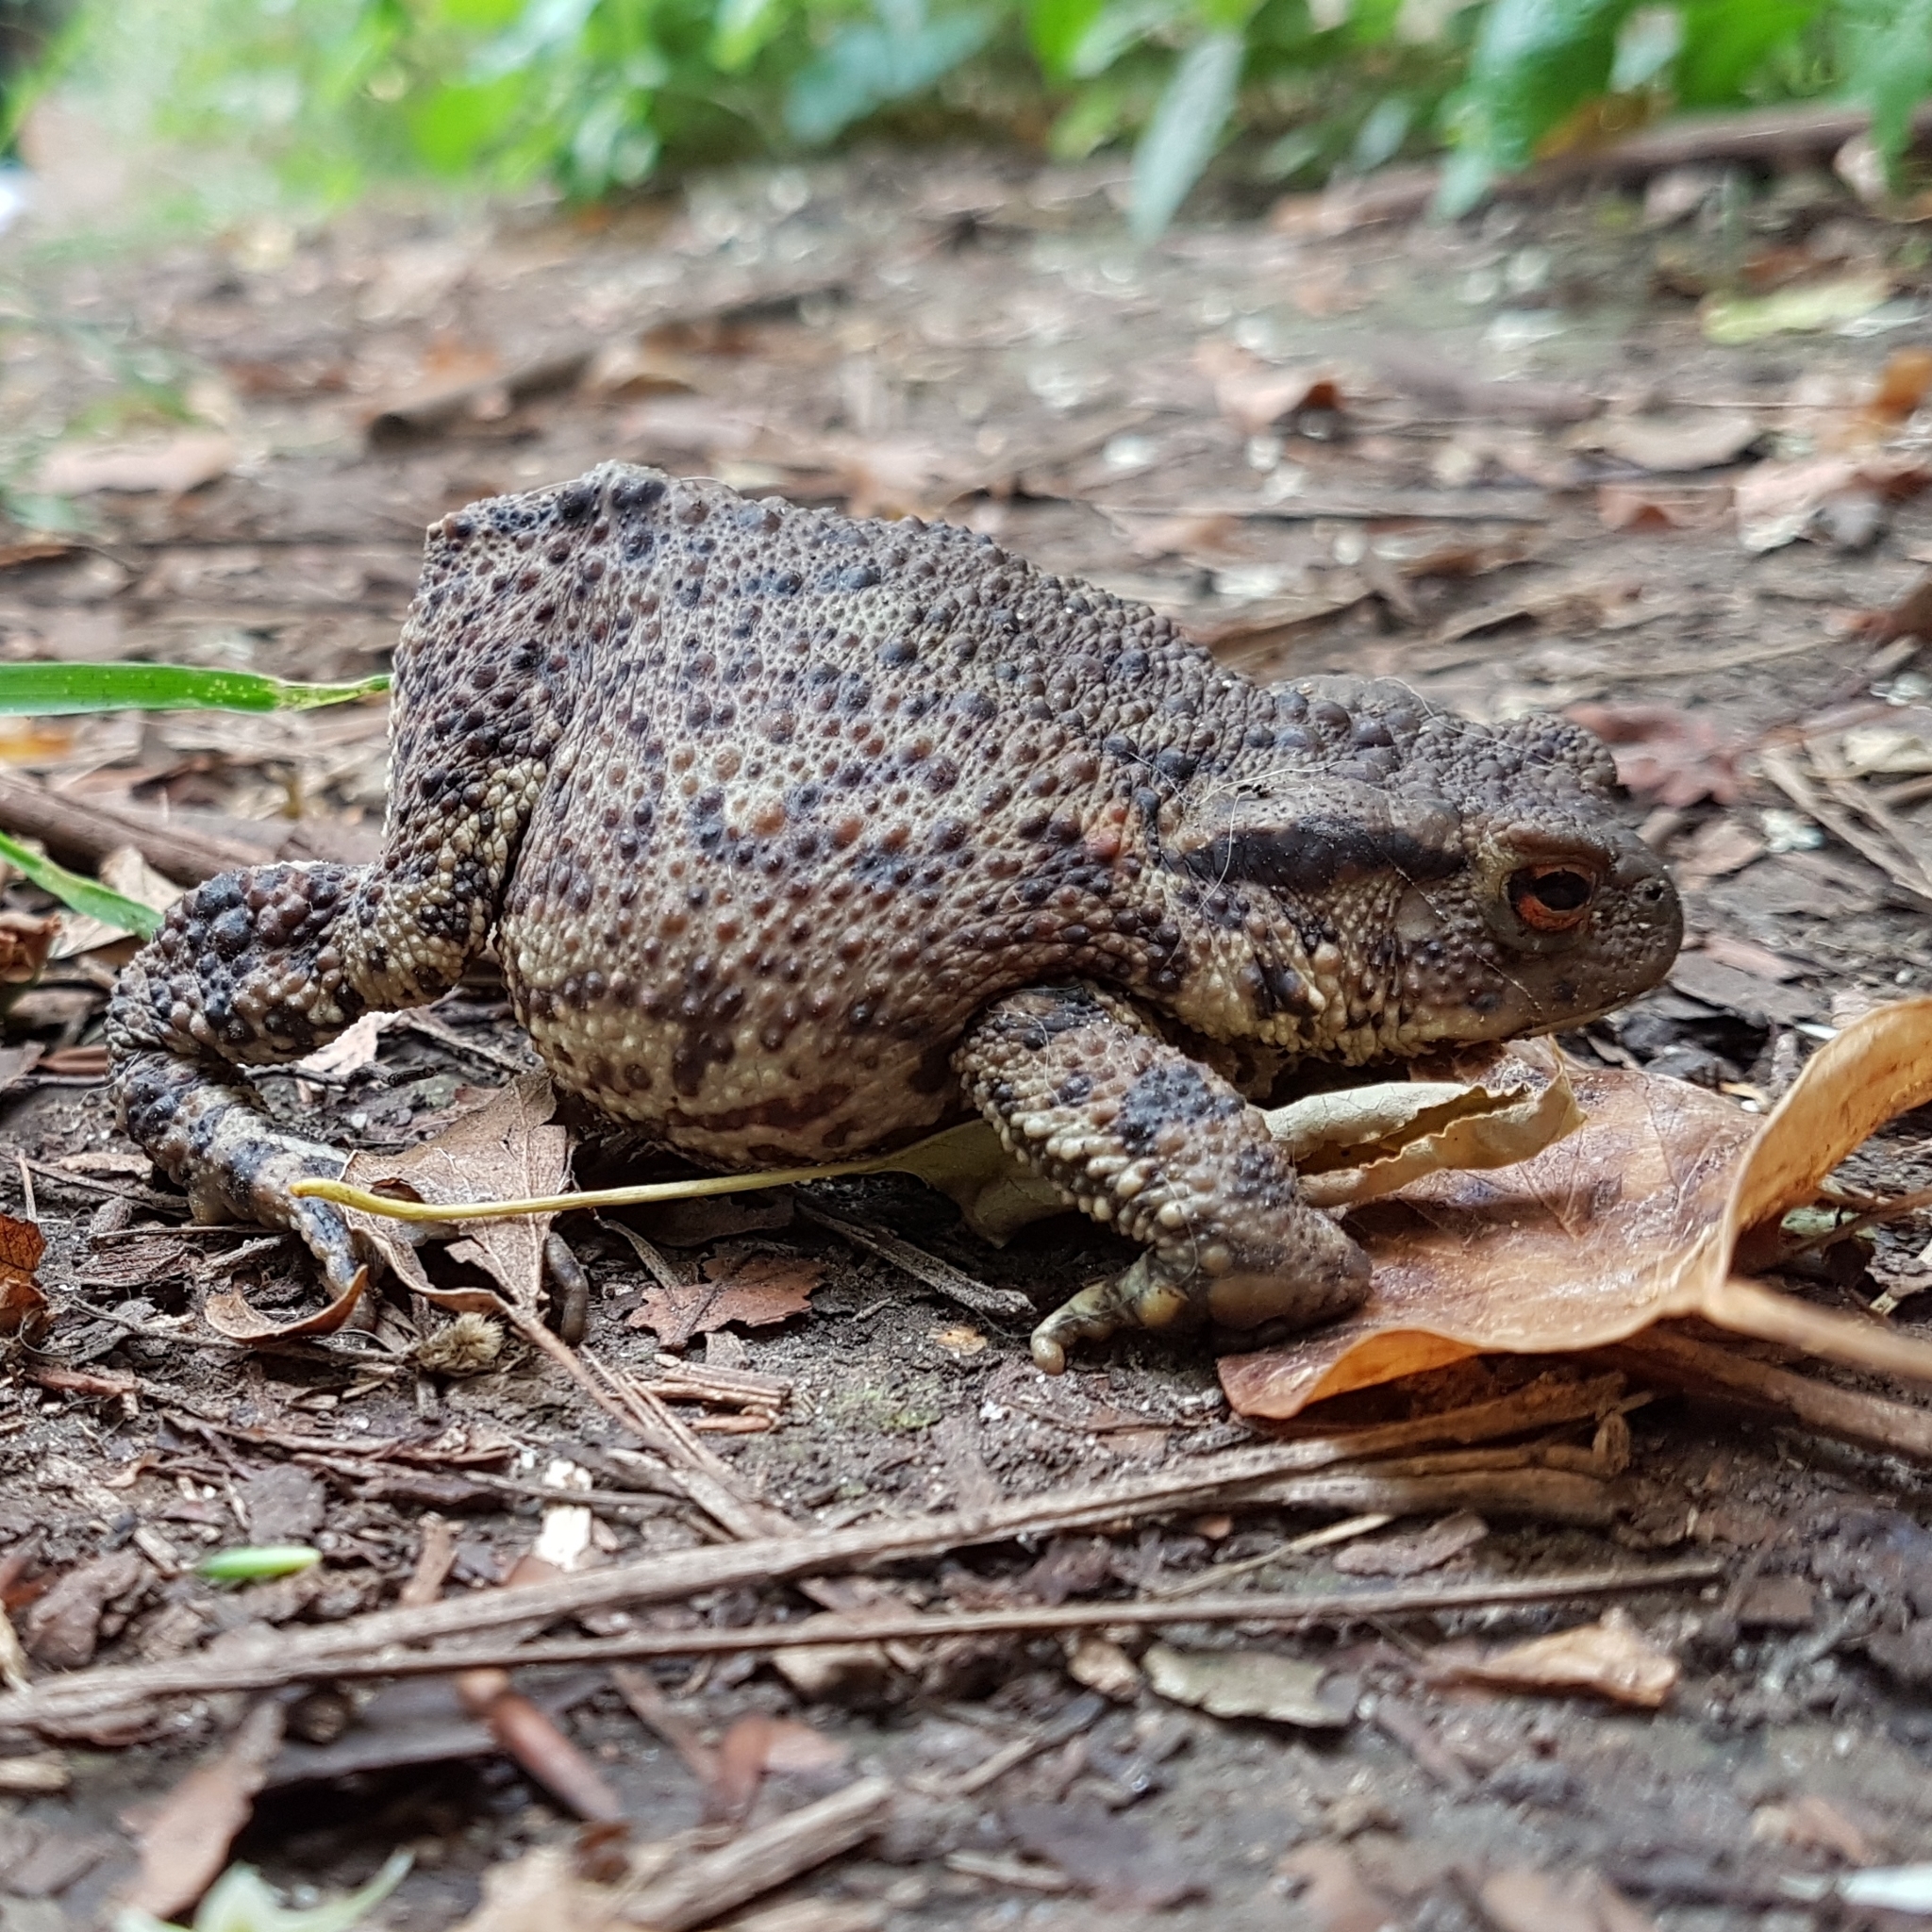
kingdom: Animalia
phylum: Chordata
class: Amphibia
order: Anura
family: Bufonidae
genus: Bufo
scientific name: Bufo bufo
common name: Common toad
